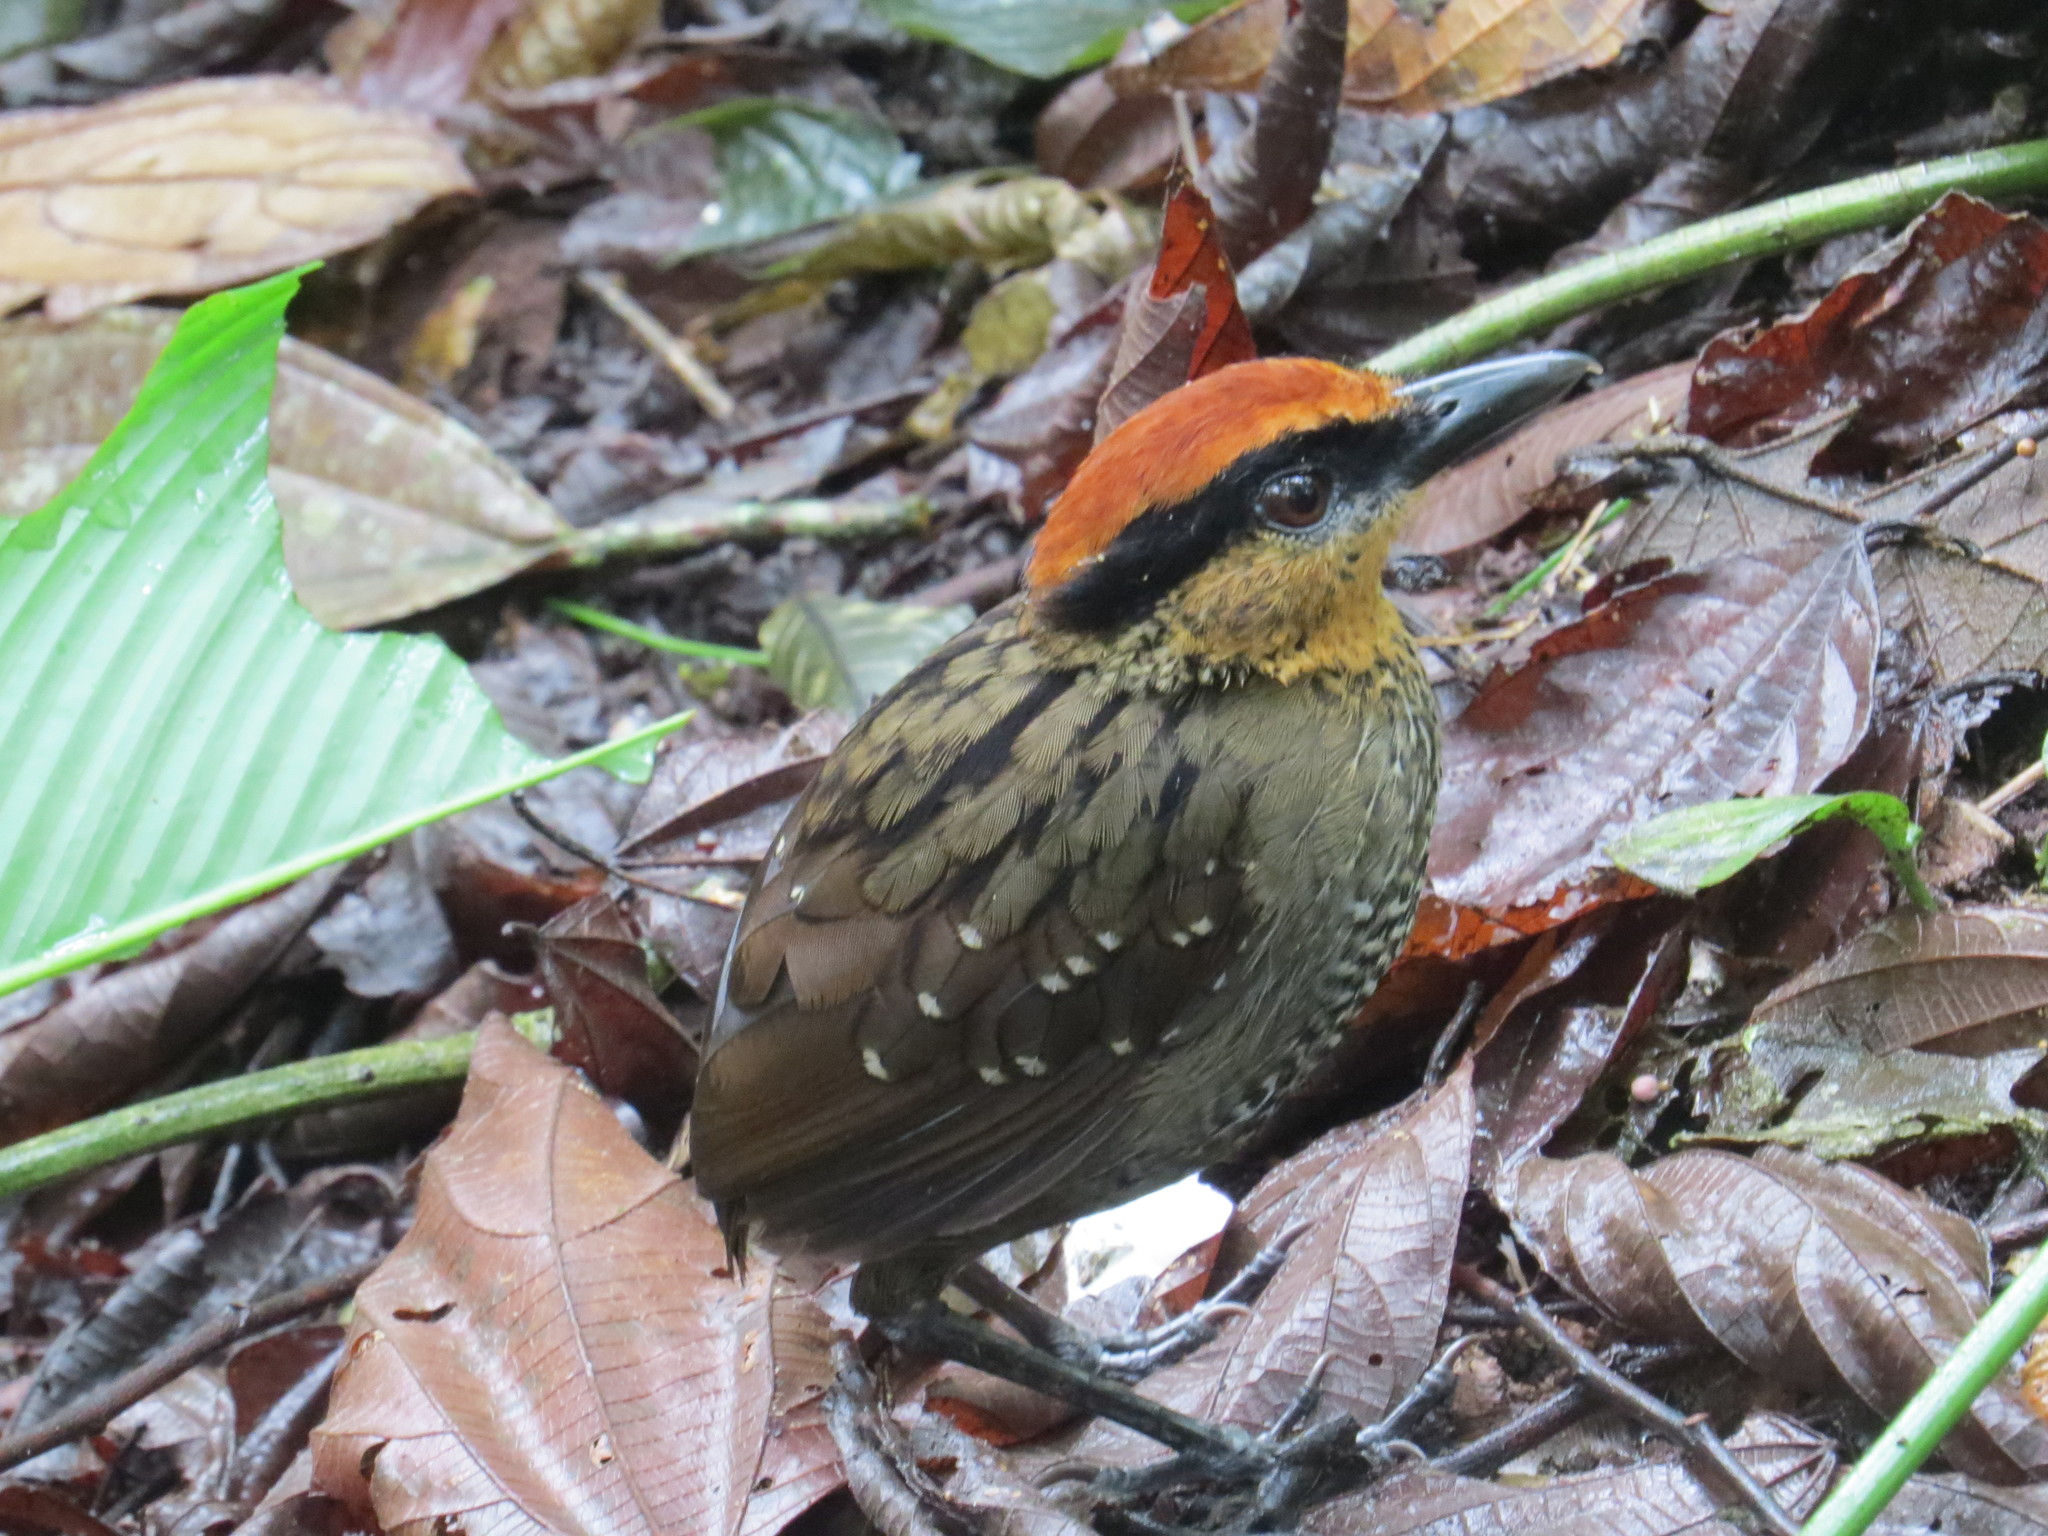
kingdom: Animalia
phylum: Chordata
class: Aves
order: Passeriformes
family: Conopophagidae
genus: Pittasoma
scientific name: Pittasoma rufopileatum
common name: Rufous-crowned antpitta
